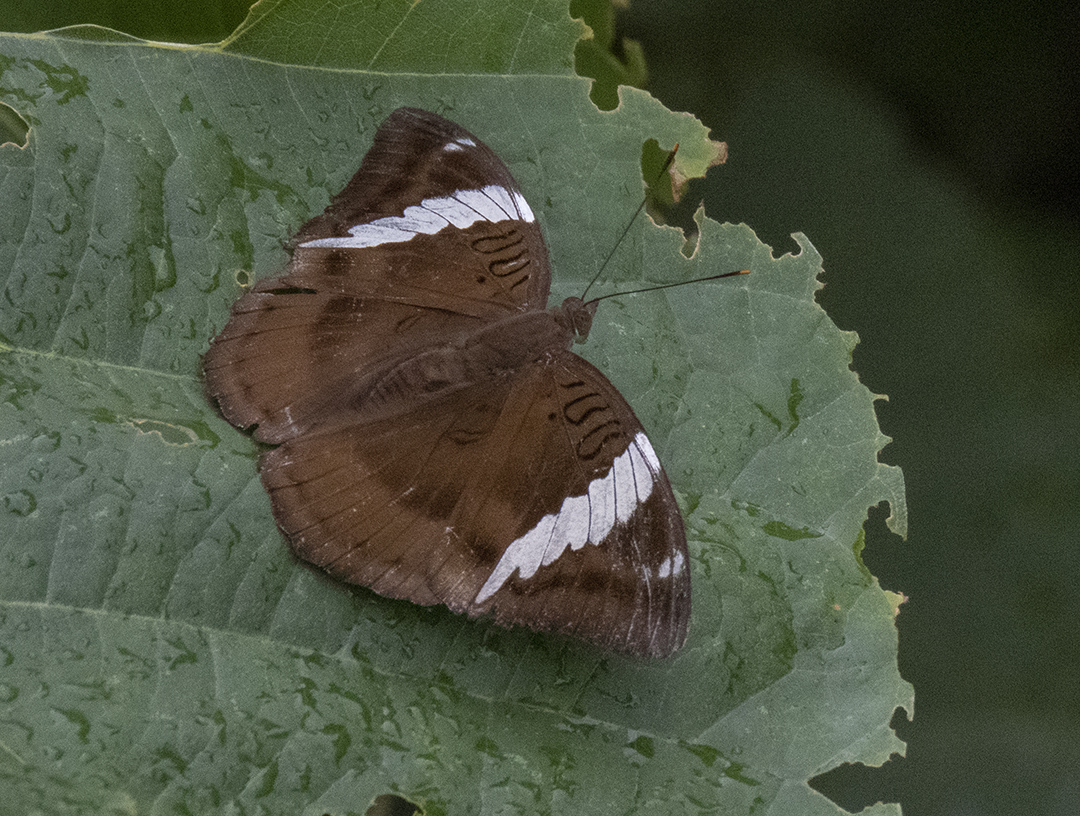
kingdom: Animalia
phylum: Arthropoda
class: Insecta
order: Lepidoptera
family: Nymphalidae
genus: Euthalia
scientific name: Euthalia phemius
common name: White-edged blue baron
